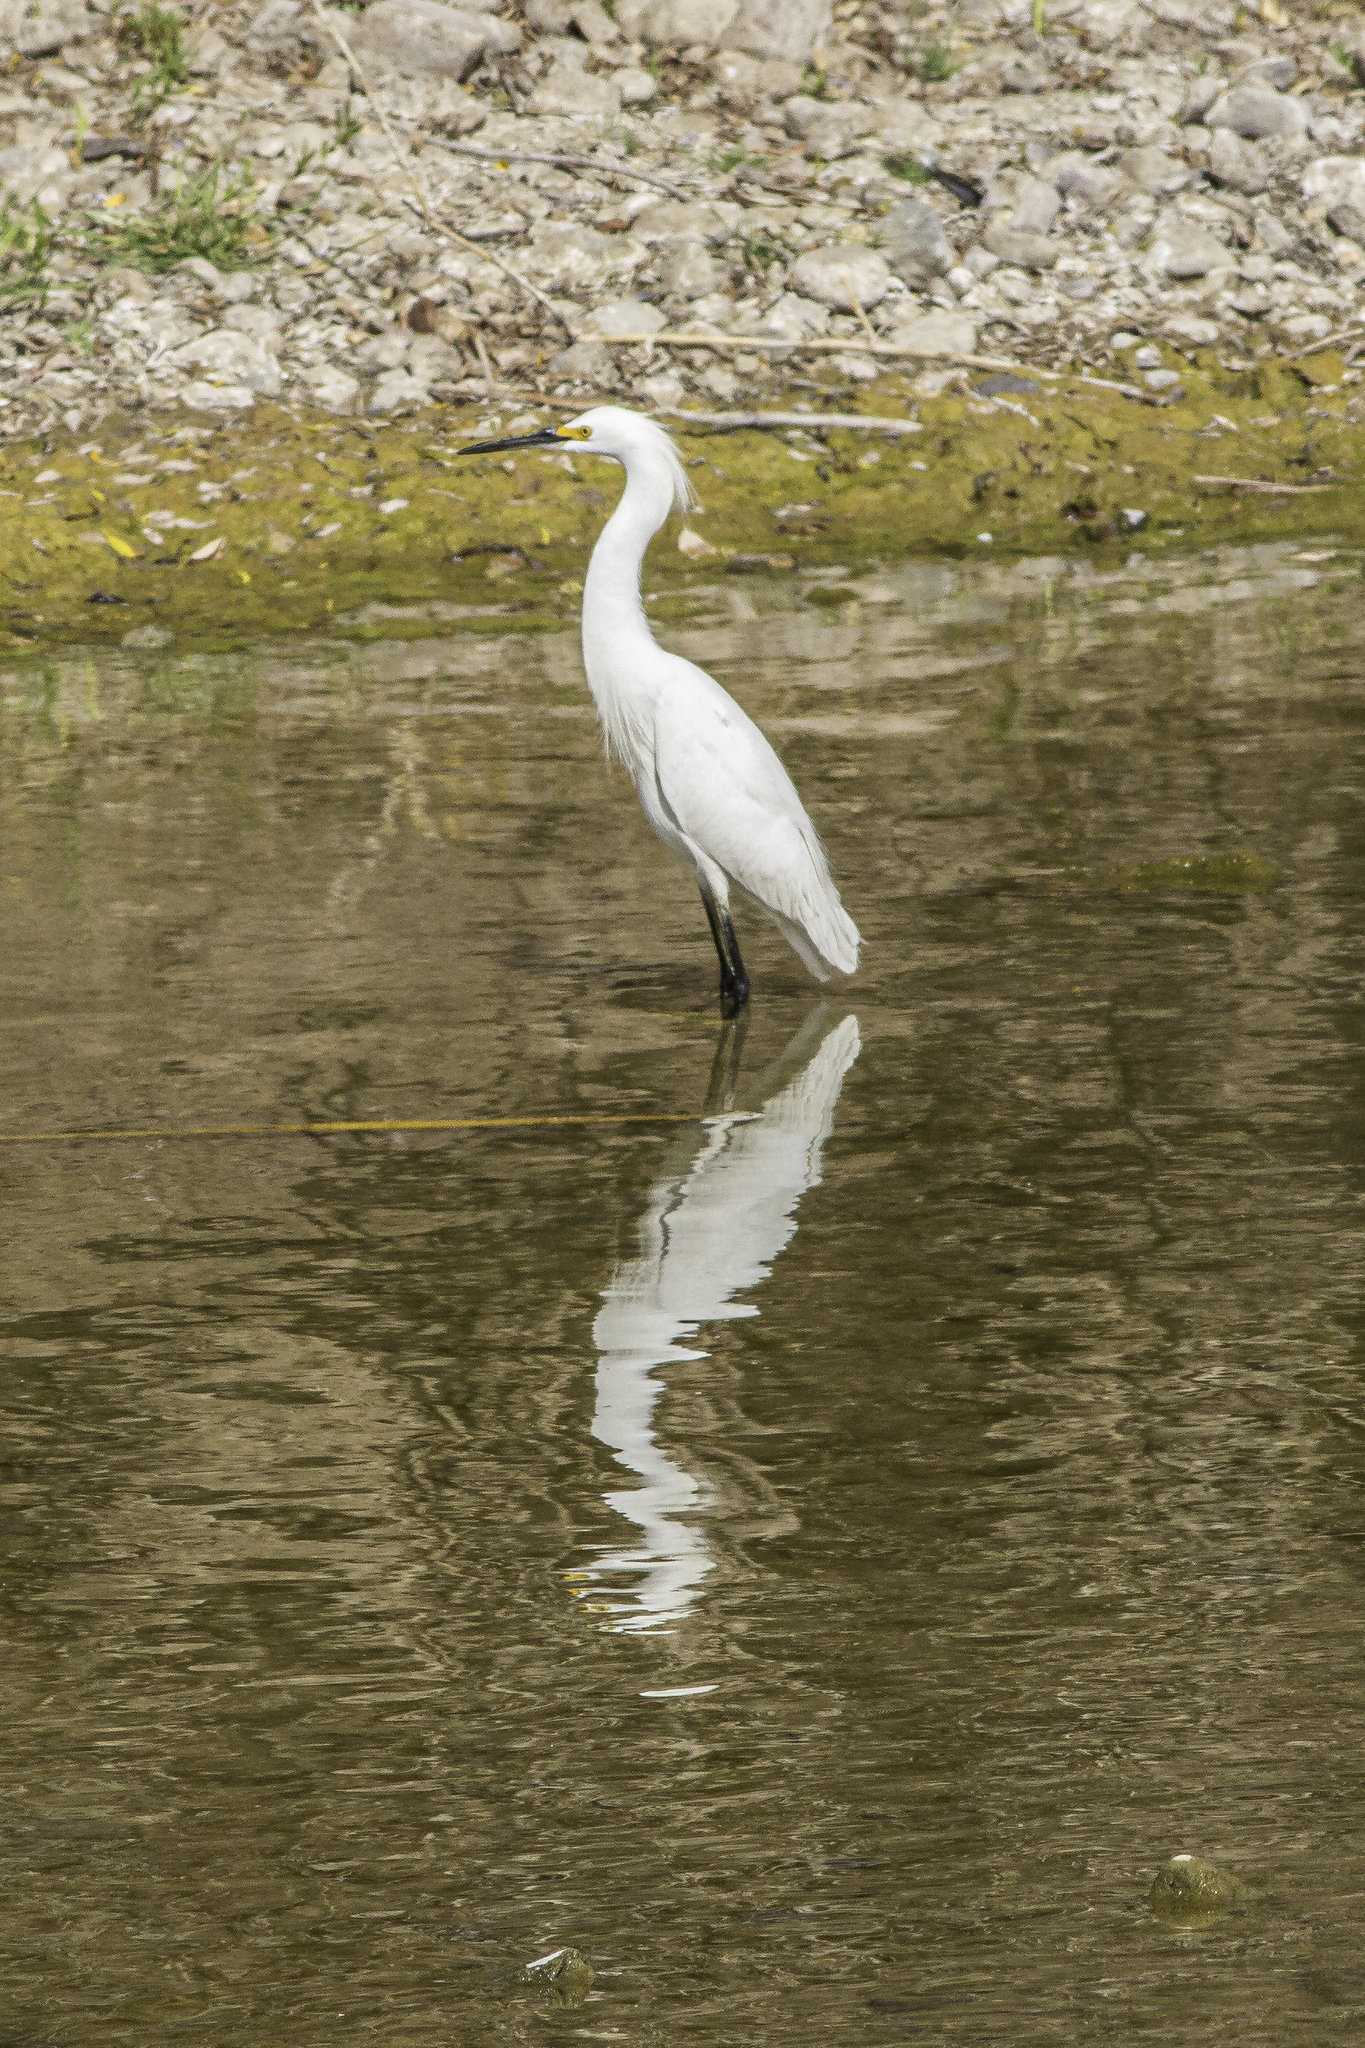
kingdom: Animalia
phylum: Chordata
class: Aves
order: Pelecaniformes
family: Ardeidae
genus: Egretta
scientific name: Egretta thula
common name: Snowy egret
